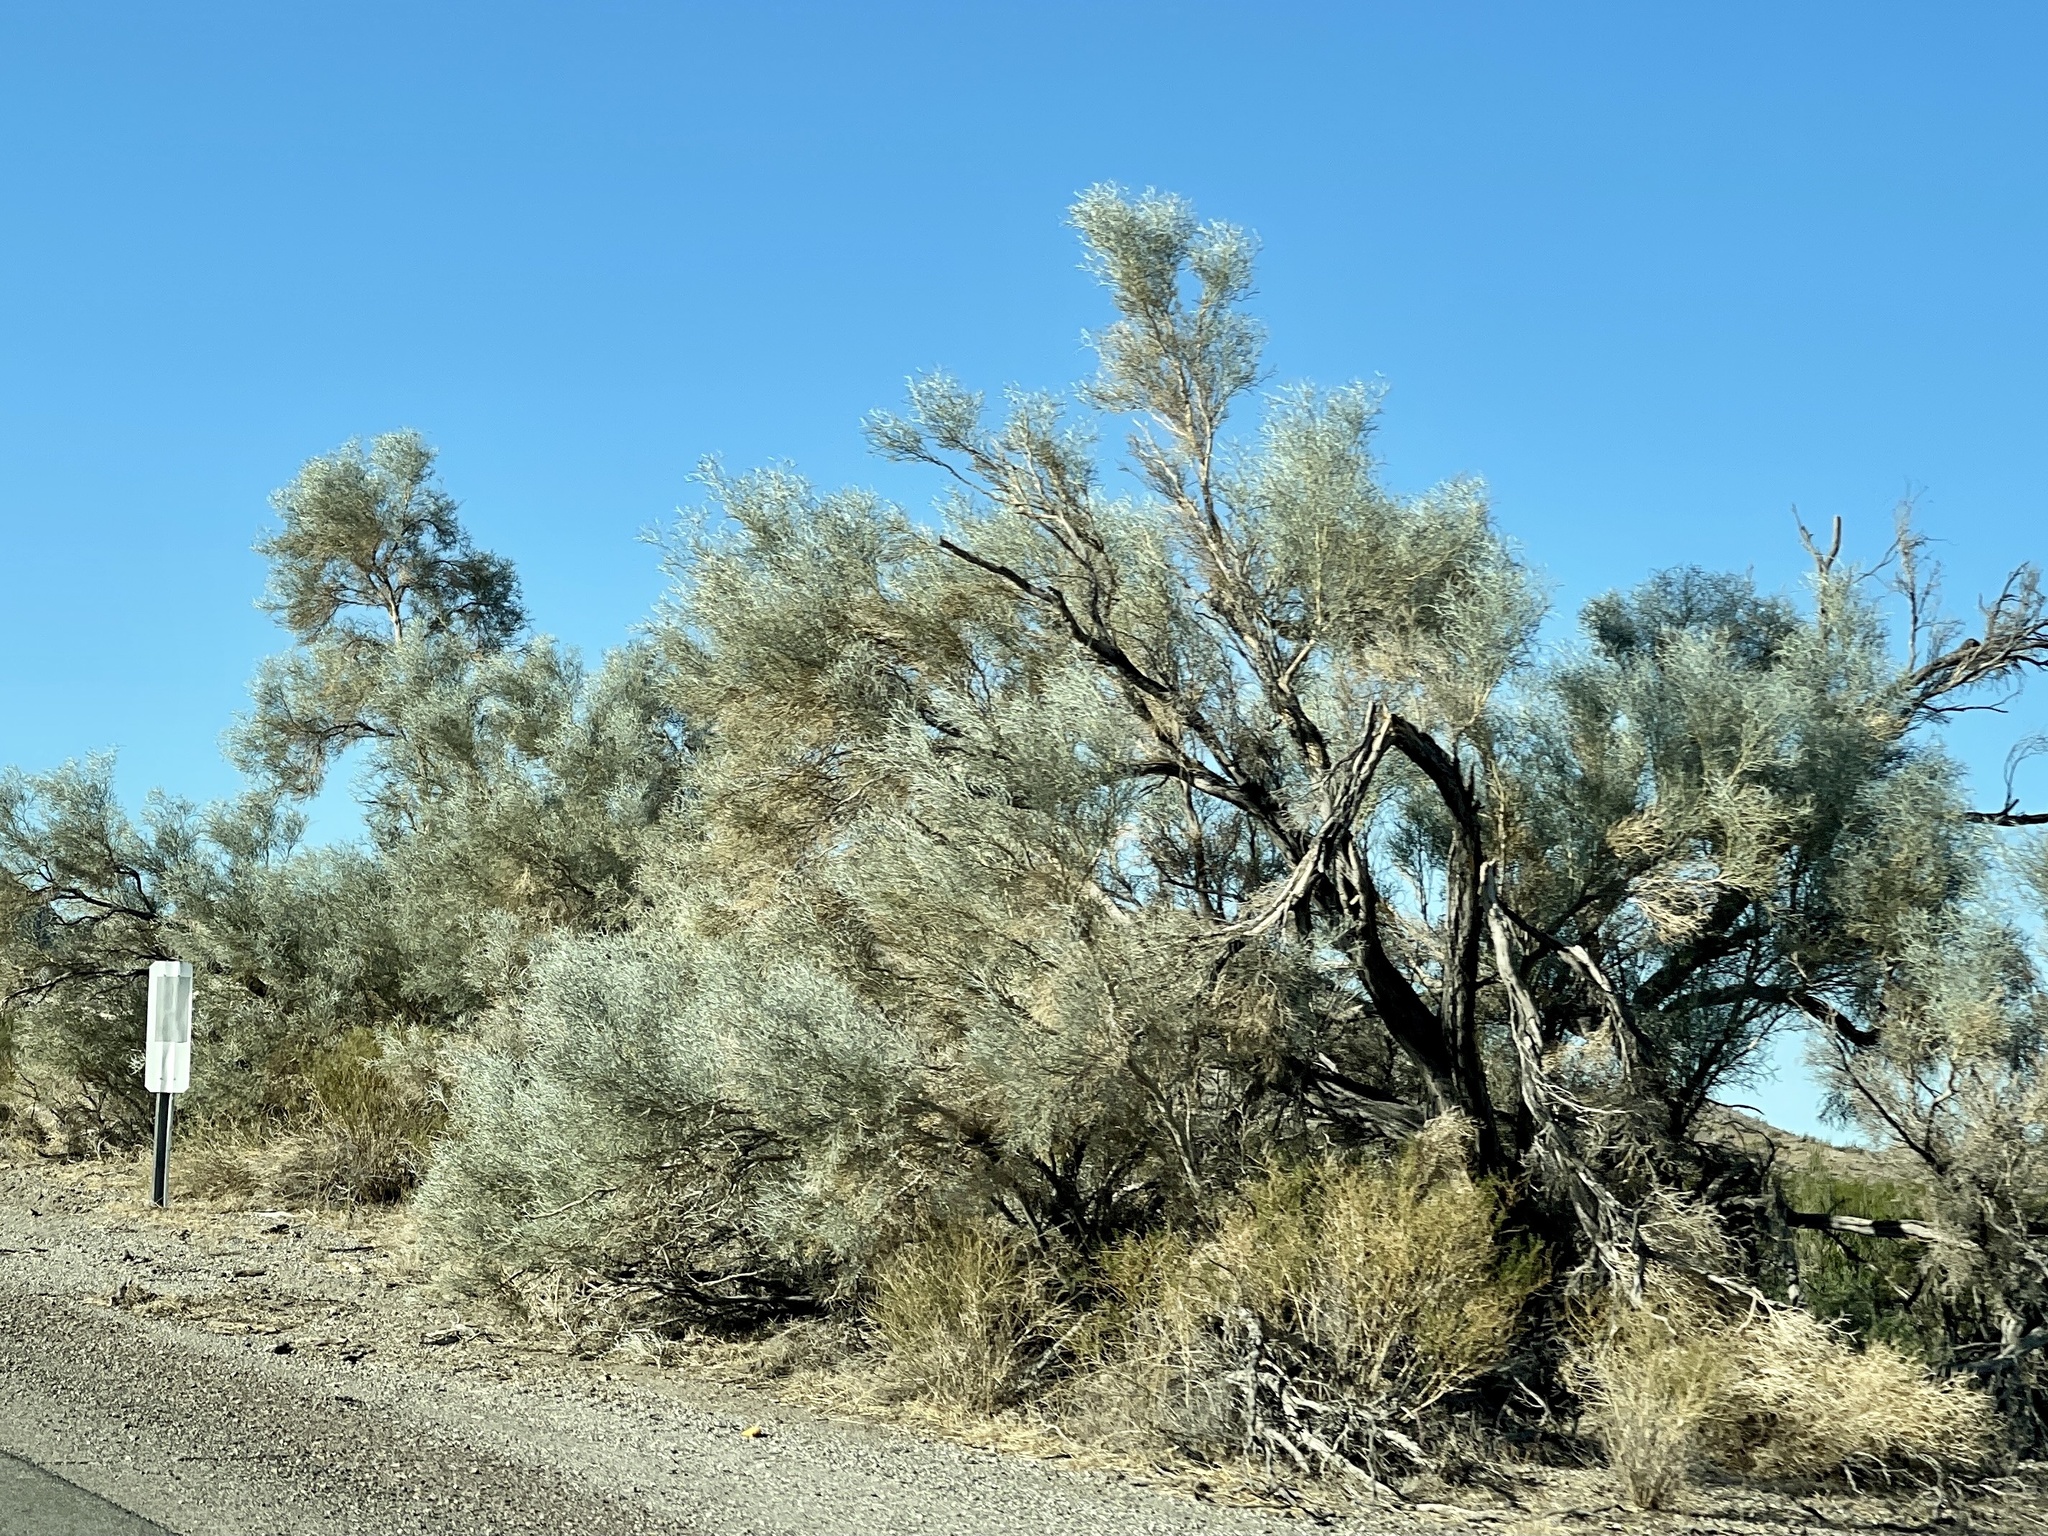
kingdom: Plantae
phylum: Tracheophyta
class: Magnoliopsida
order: Fabales
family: Fabaceae
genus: Psorothamnus
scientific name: Psorothamnus spinosus
